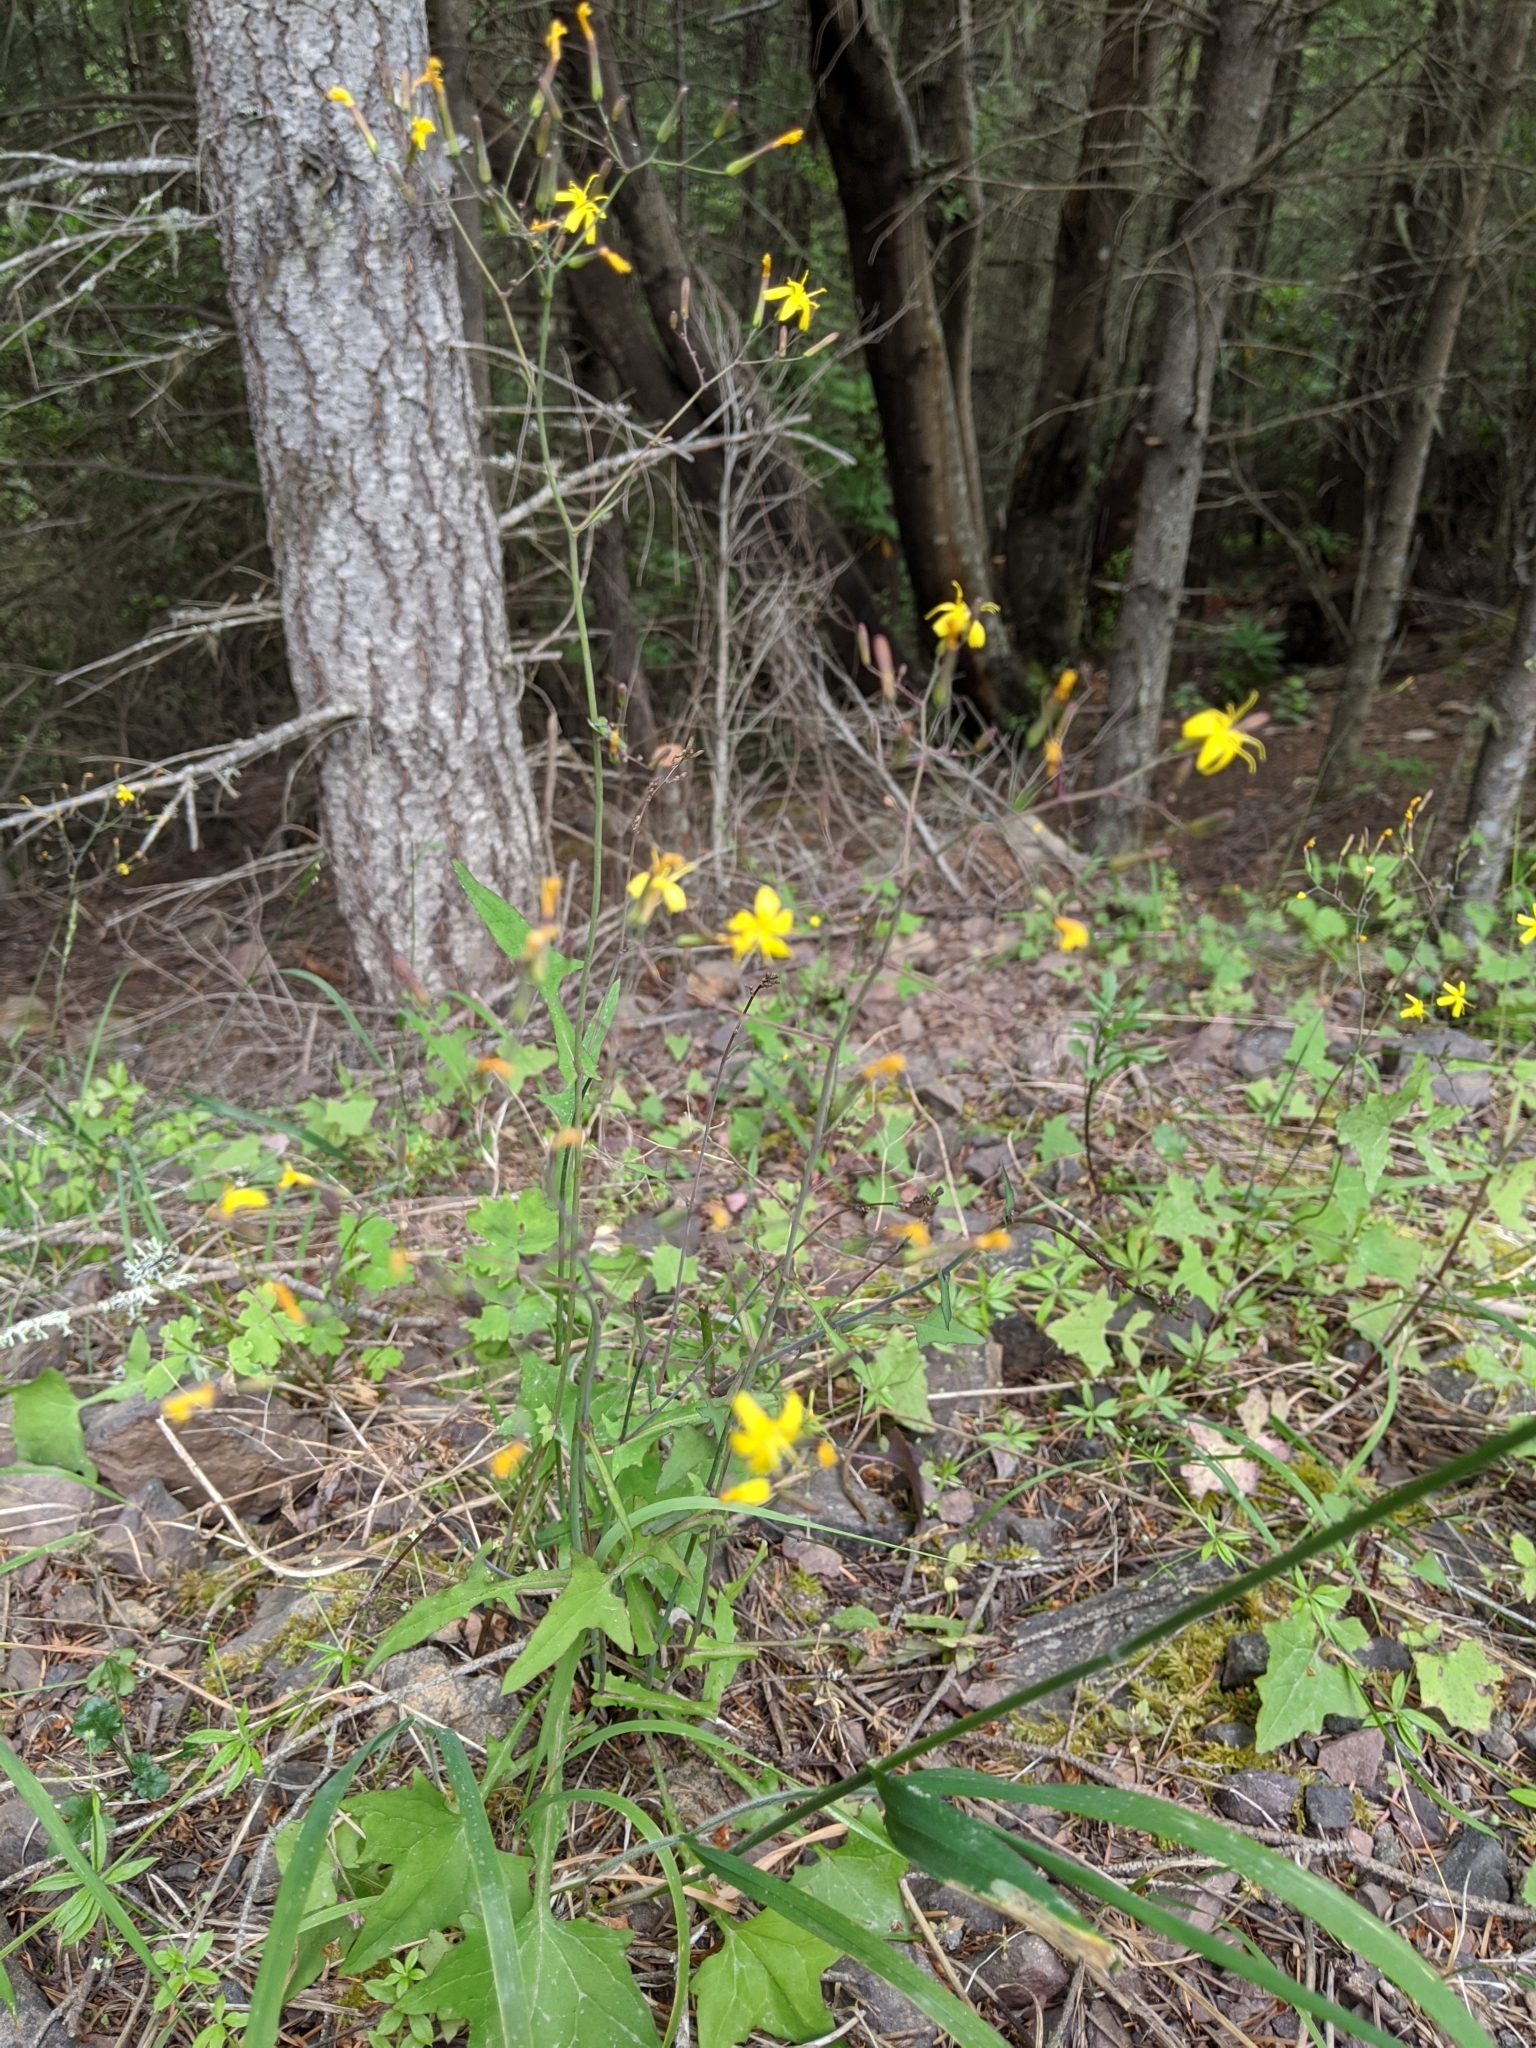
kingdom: Plantae
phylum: Tracheophyta
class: Magnoliopsida
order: Asterales
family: Asteraceae
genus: Mycelis
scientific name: Mycelis muralis
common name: Wall lettuce
